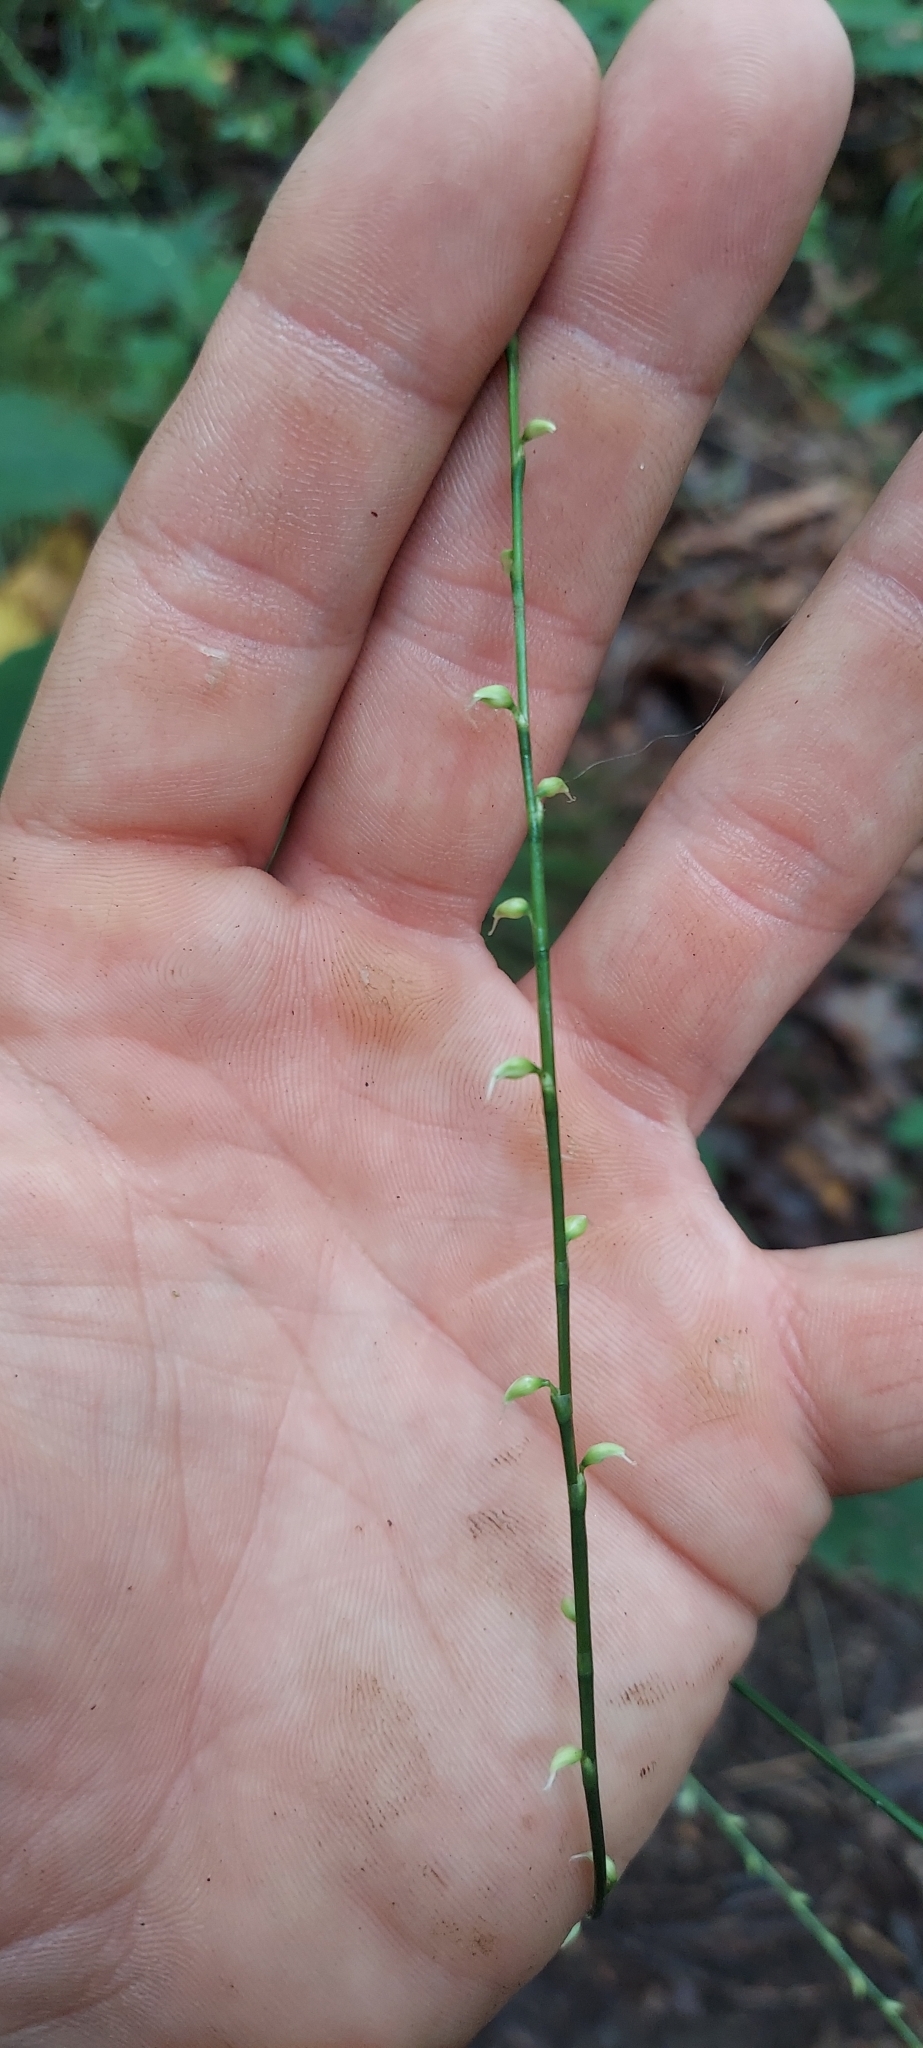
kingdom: Plantae
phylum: Tracheophyta
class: Magnoliopsida
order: Caryophyllales
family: Polygonaceae
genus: Persicaria
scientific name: Persicaria virginiana
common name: Jumpseed
